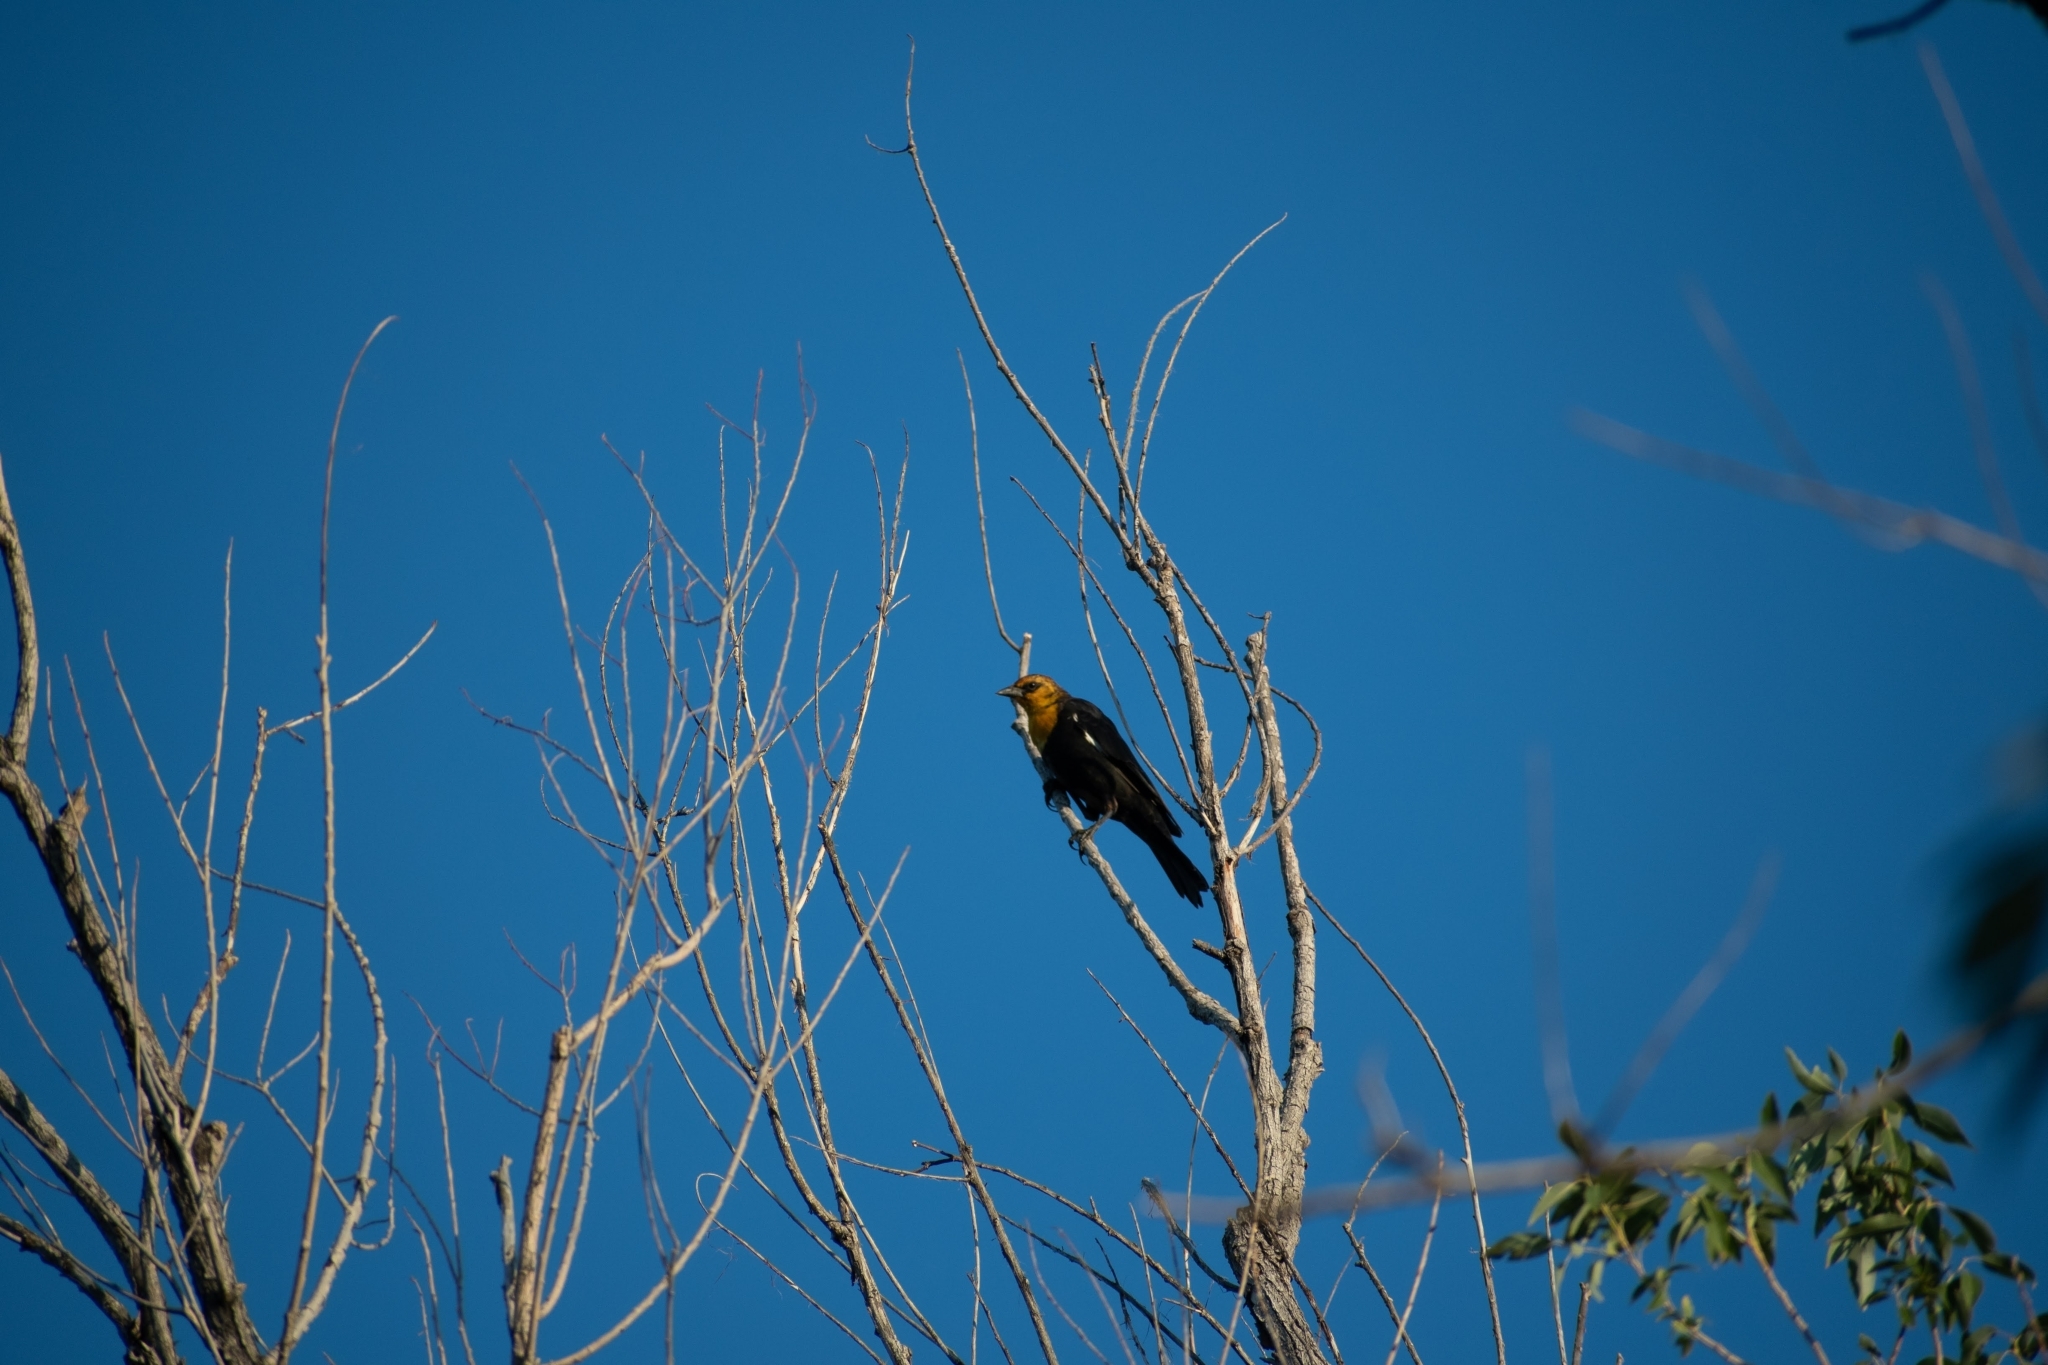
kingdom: Animalia
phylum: Chordata
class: Aves
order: Passeriformes
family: Icteridae
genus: Xanthocephalus
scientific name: Xanthocephalus xanthocephalus
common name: Yellow-headed blackbird
